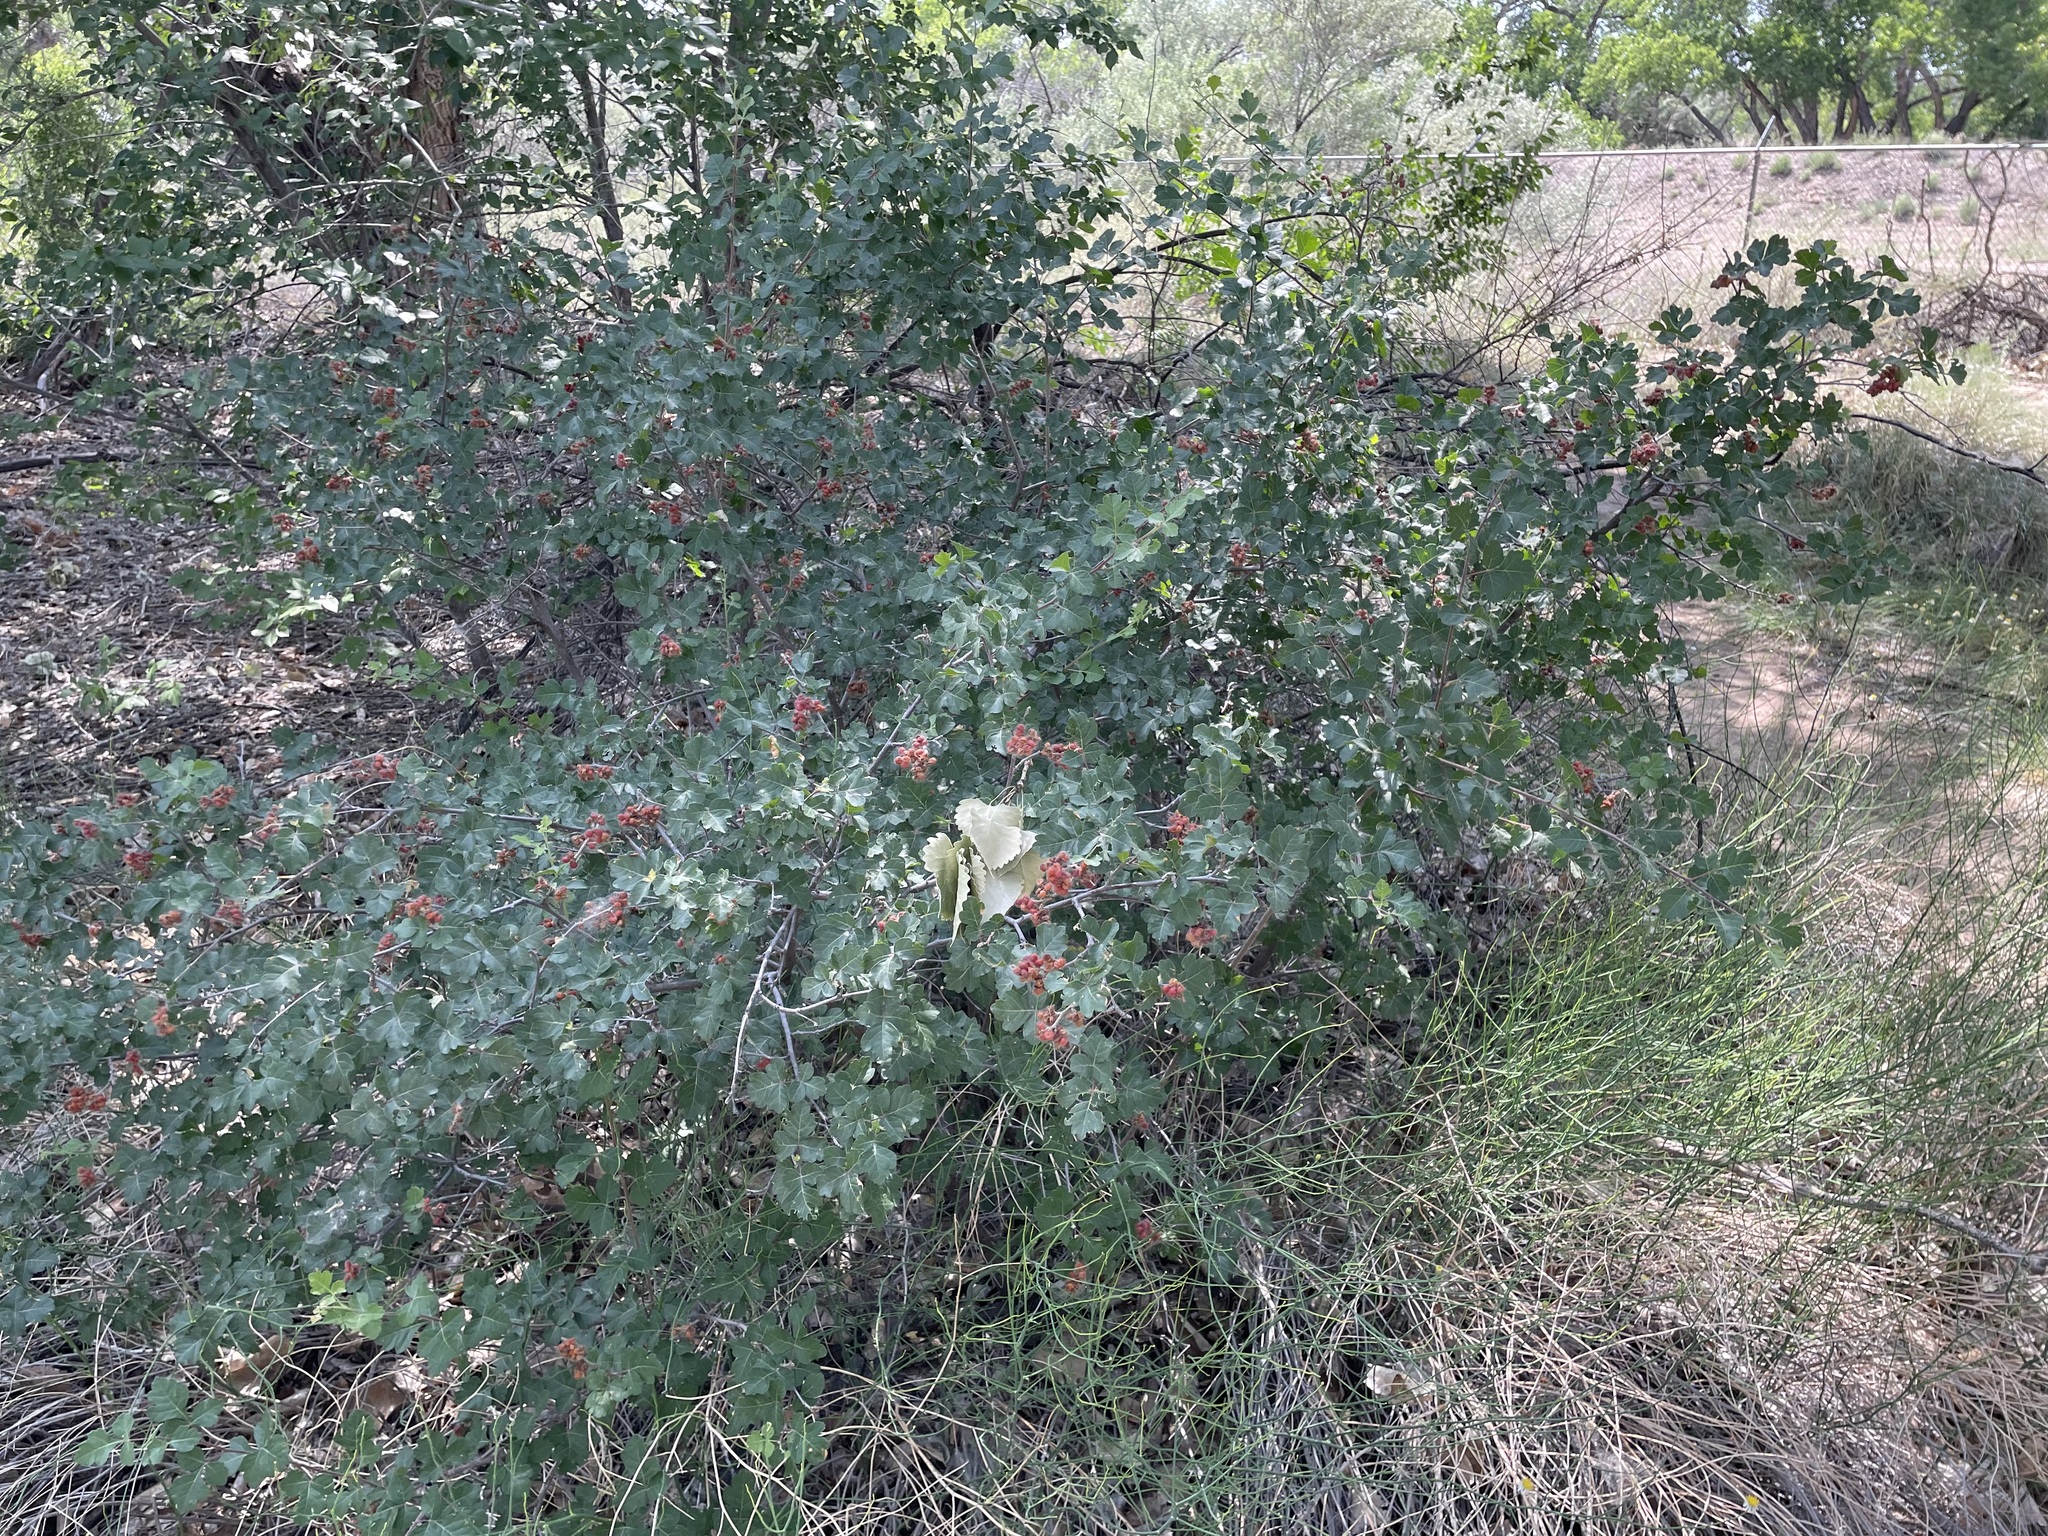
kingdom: Plantae
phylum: Tracheophyta
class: Magnoliopsida
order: Sapindales
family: Anacardiaceae
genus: Rhus
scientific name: Rhus trilobata
